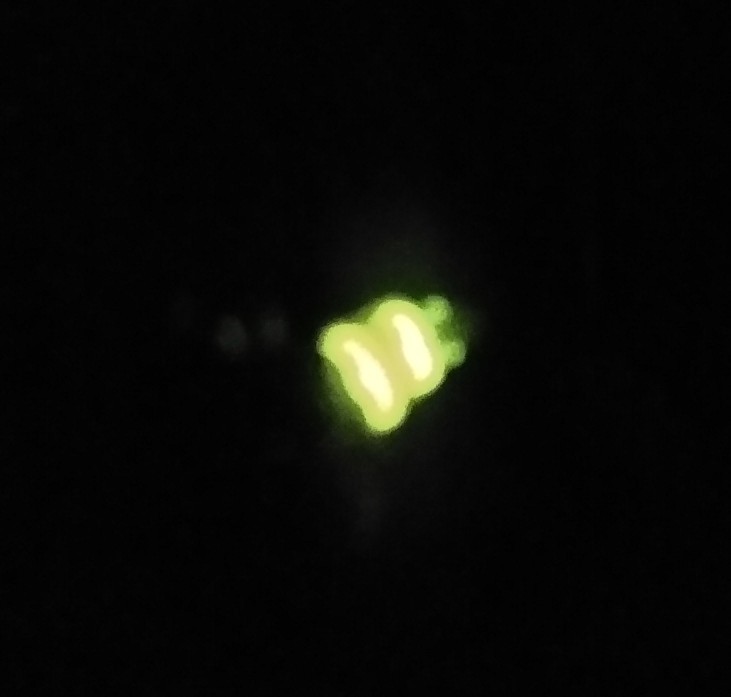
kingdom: Animalia
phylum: Arthropoda
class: Insecta
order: Coleoptera
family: Lampyridae
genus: Lampyris
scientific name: Lampyris noctiluca
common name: Glow-worm
